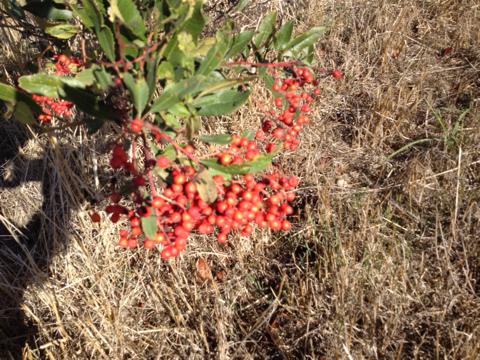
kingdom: Plantae
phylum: Tracheophyta
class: Magnoliopsida
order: Rosales
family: Rosaceae
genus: Heteromeles
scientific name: Heteromeles arbutifolia
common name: California-holly
